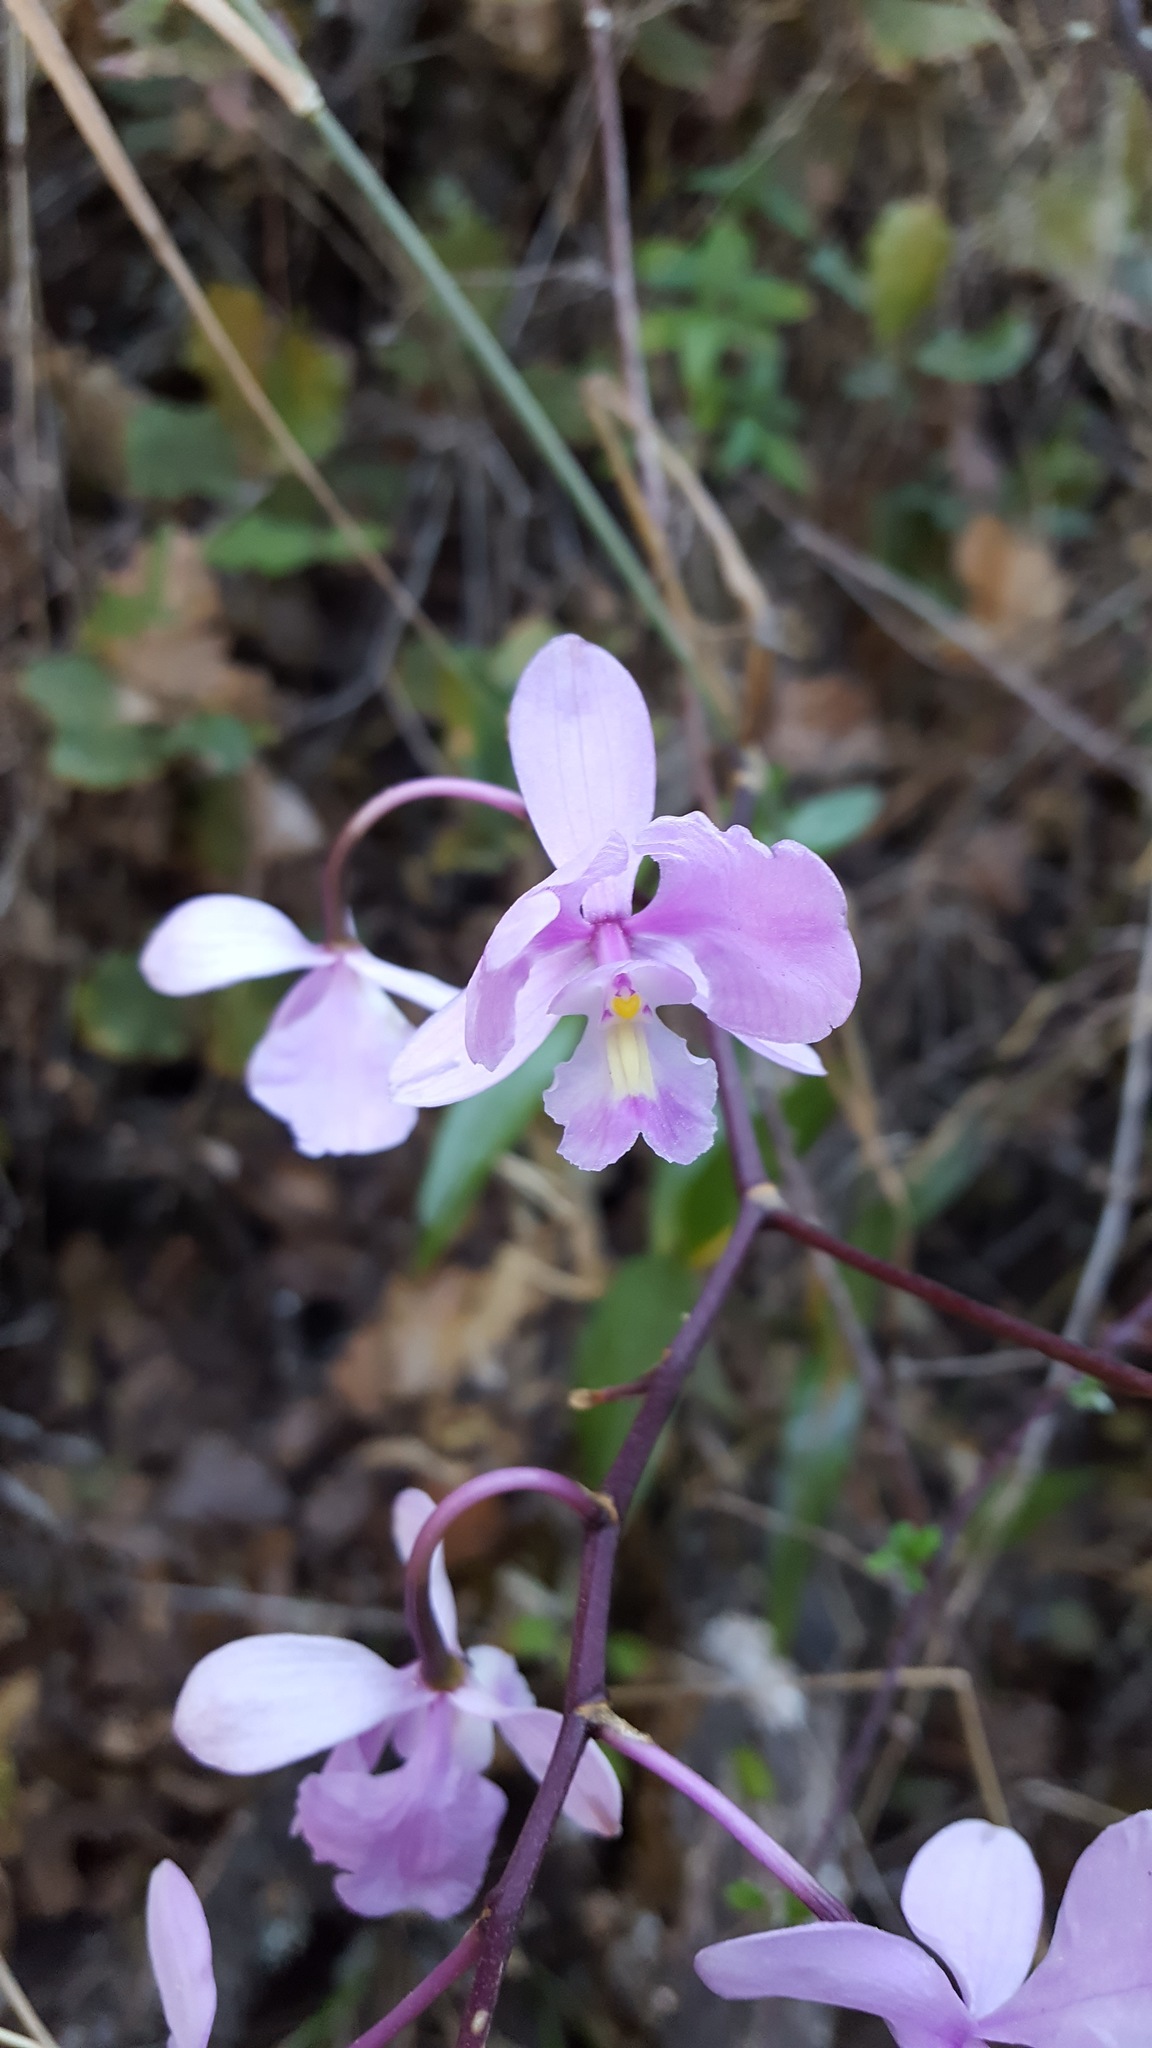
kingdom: Plantae
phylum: Tracheophyta
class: Liliopsida
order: Asparagales
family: Orchidaceae
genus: Artorima
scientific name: Artorima erubescens
